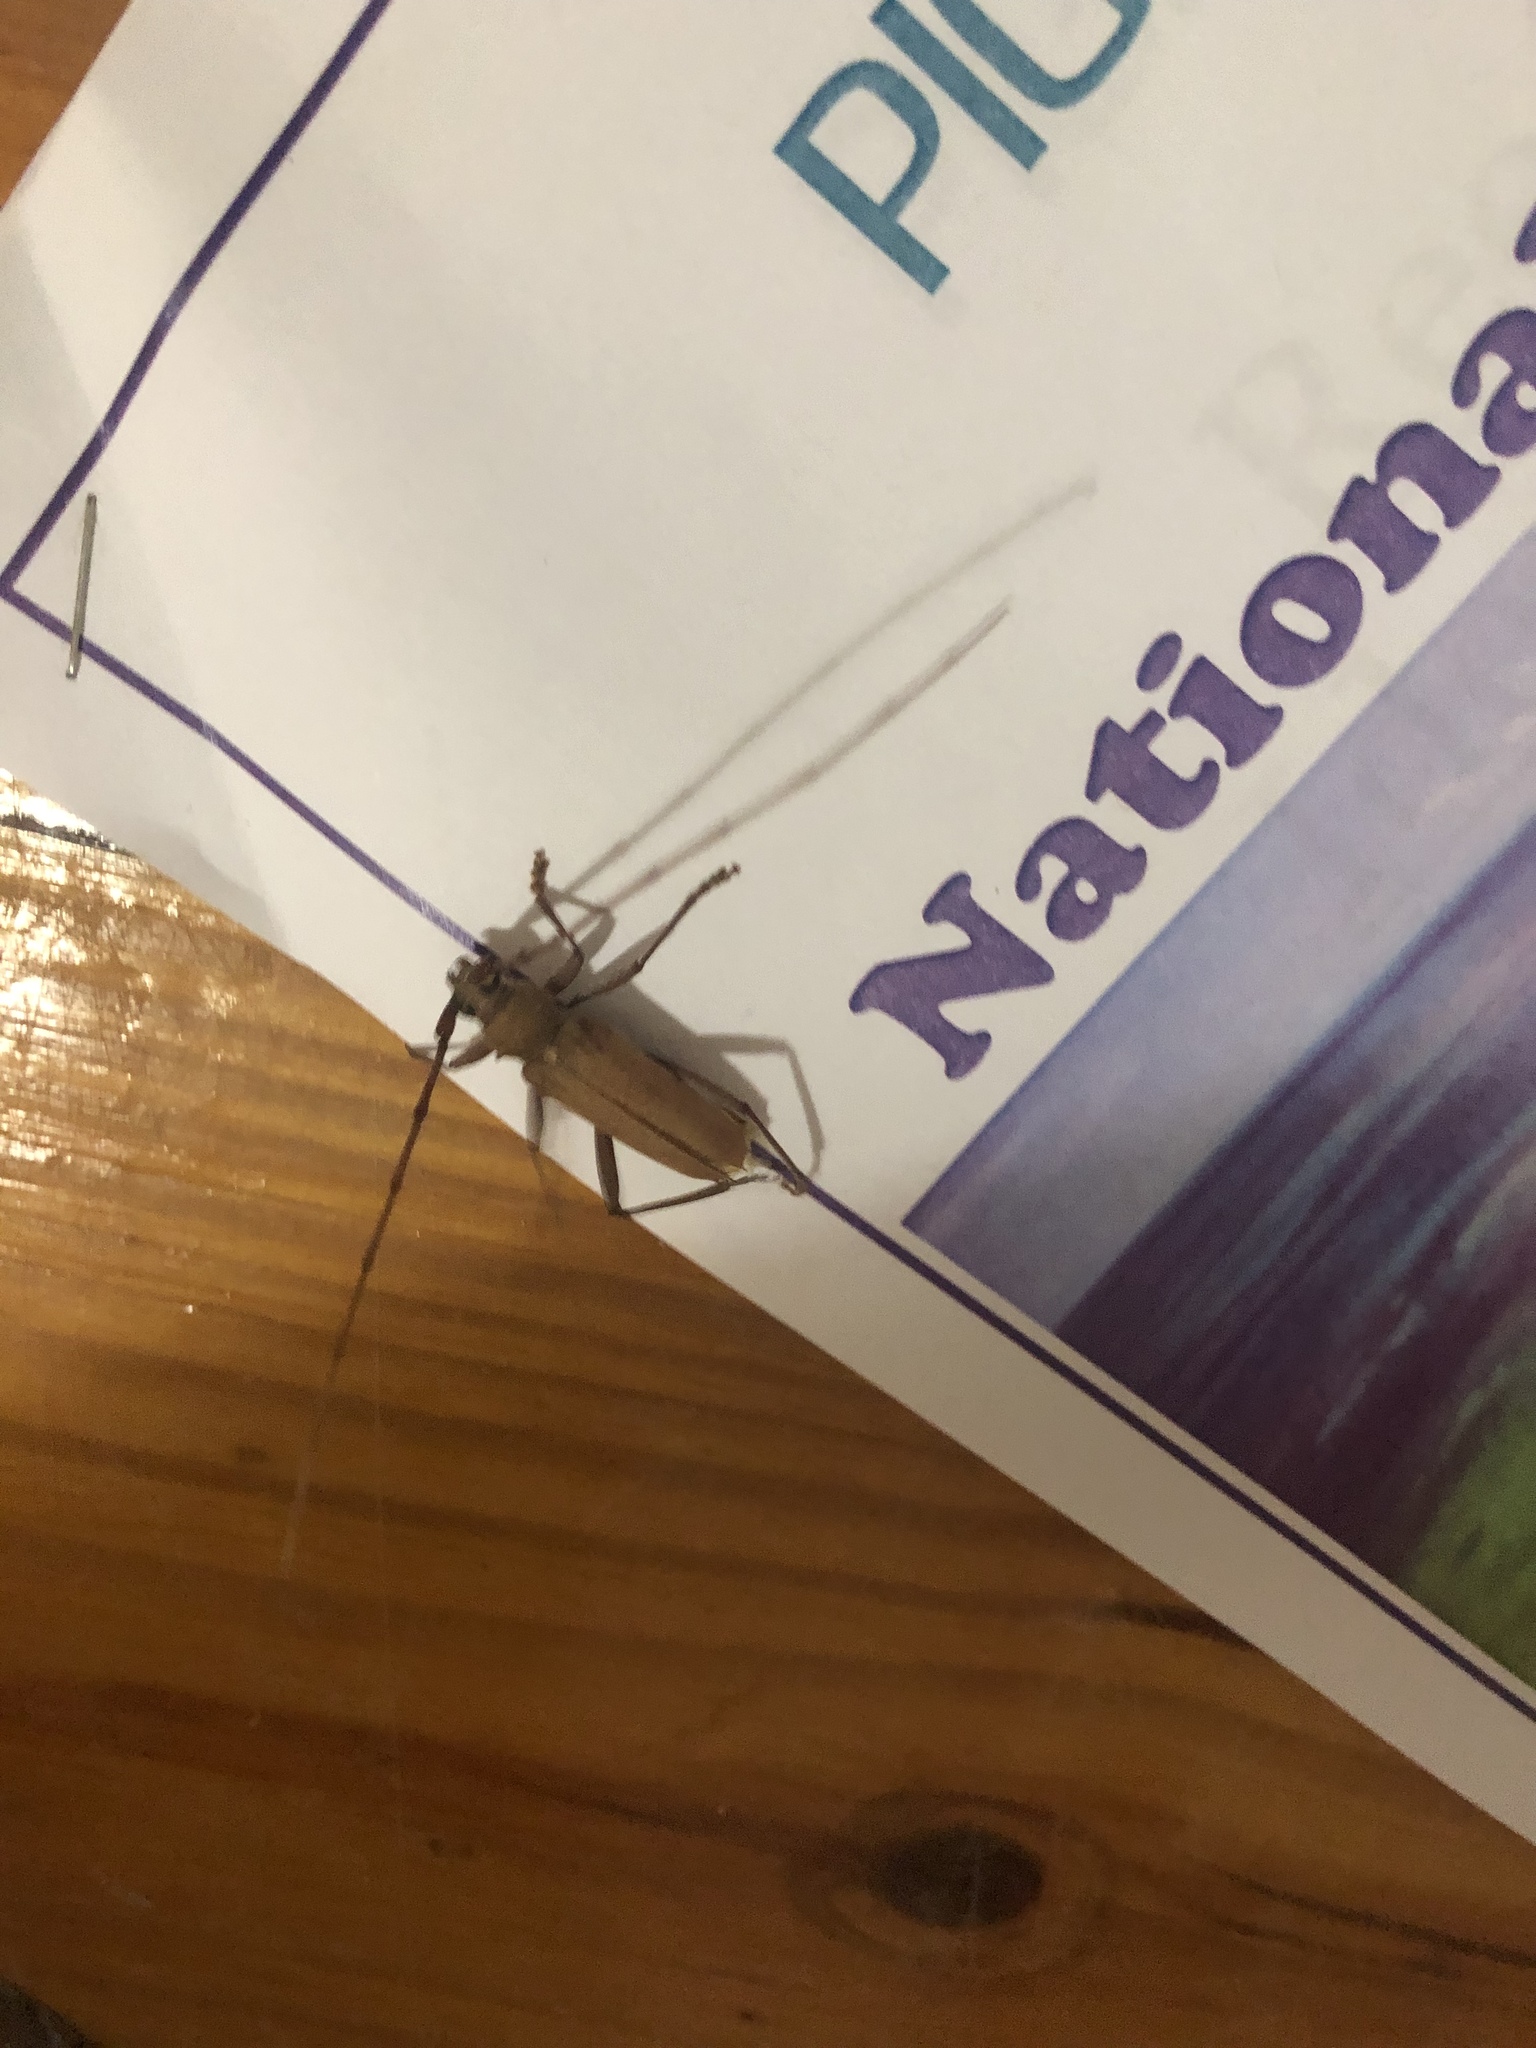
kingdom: Animalia
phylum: Arthropoda
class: Insecta
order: Coleoptera
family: Cerambycidae
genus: Knulliana
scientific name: Knulliana cincta
